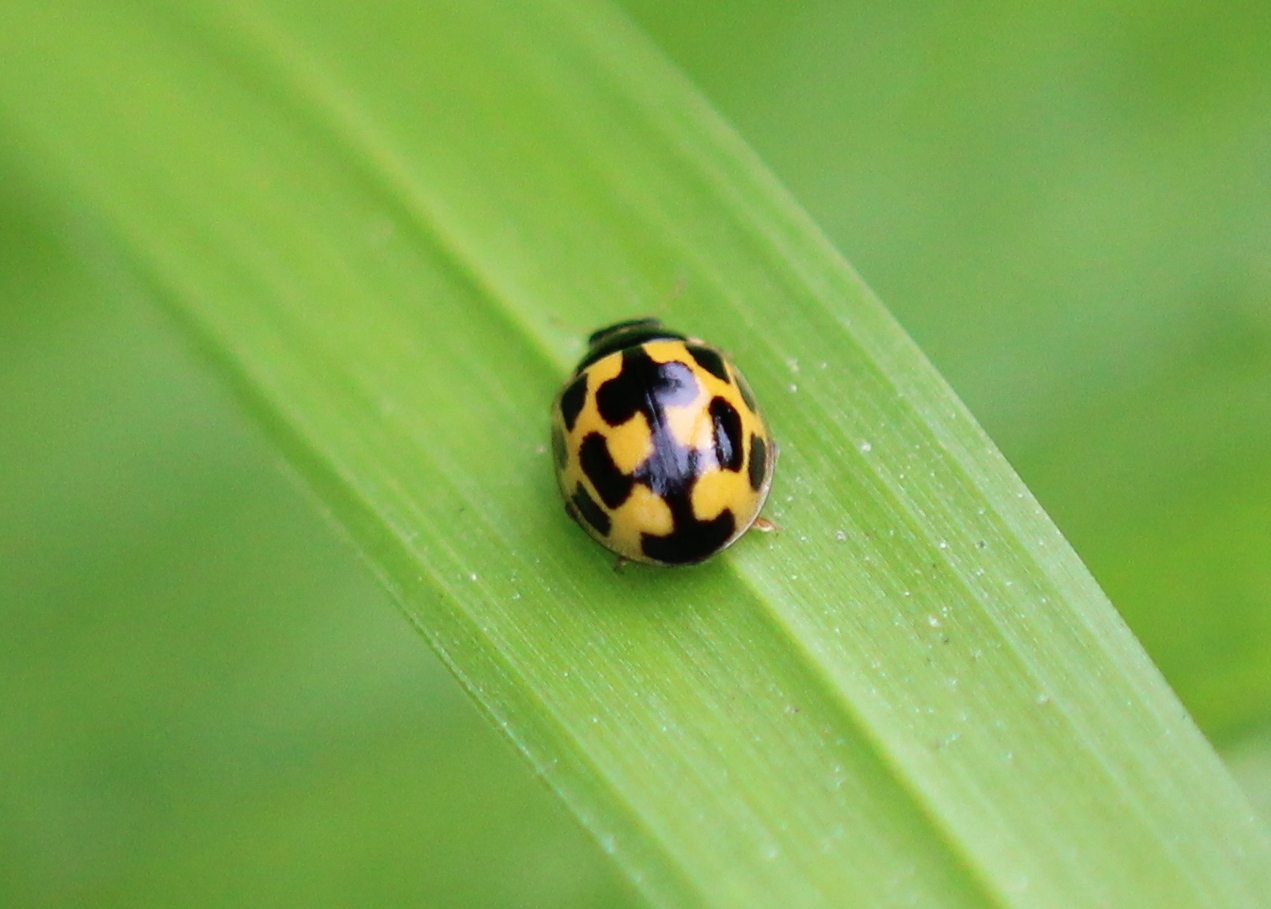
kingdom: Animalia
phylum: Arthropoda
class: Insecta
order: Coleoptera
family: Coccinellidae
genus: Propylaea
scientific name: Propylaea quatuordecimpunctata
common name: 14-spotted ladybird beetle
